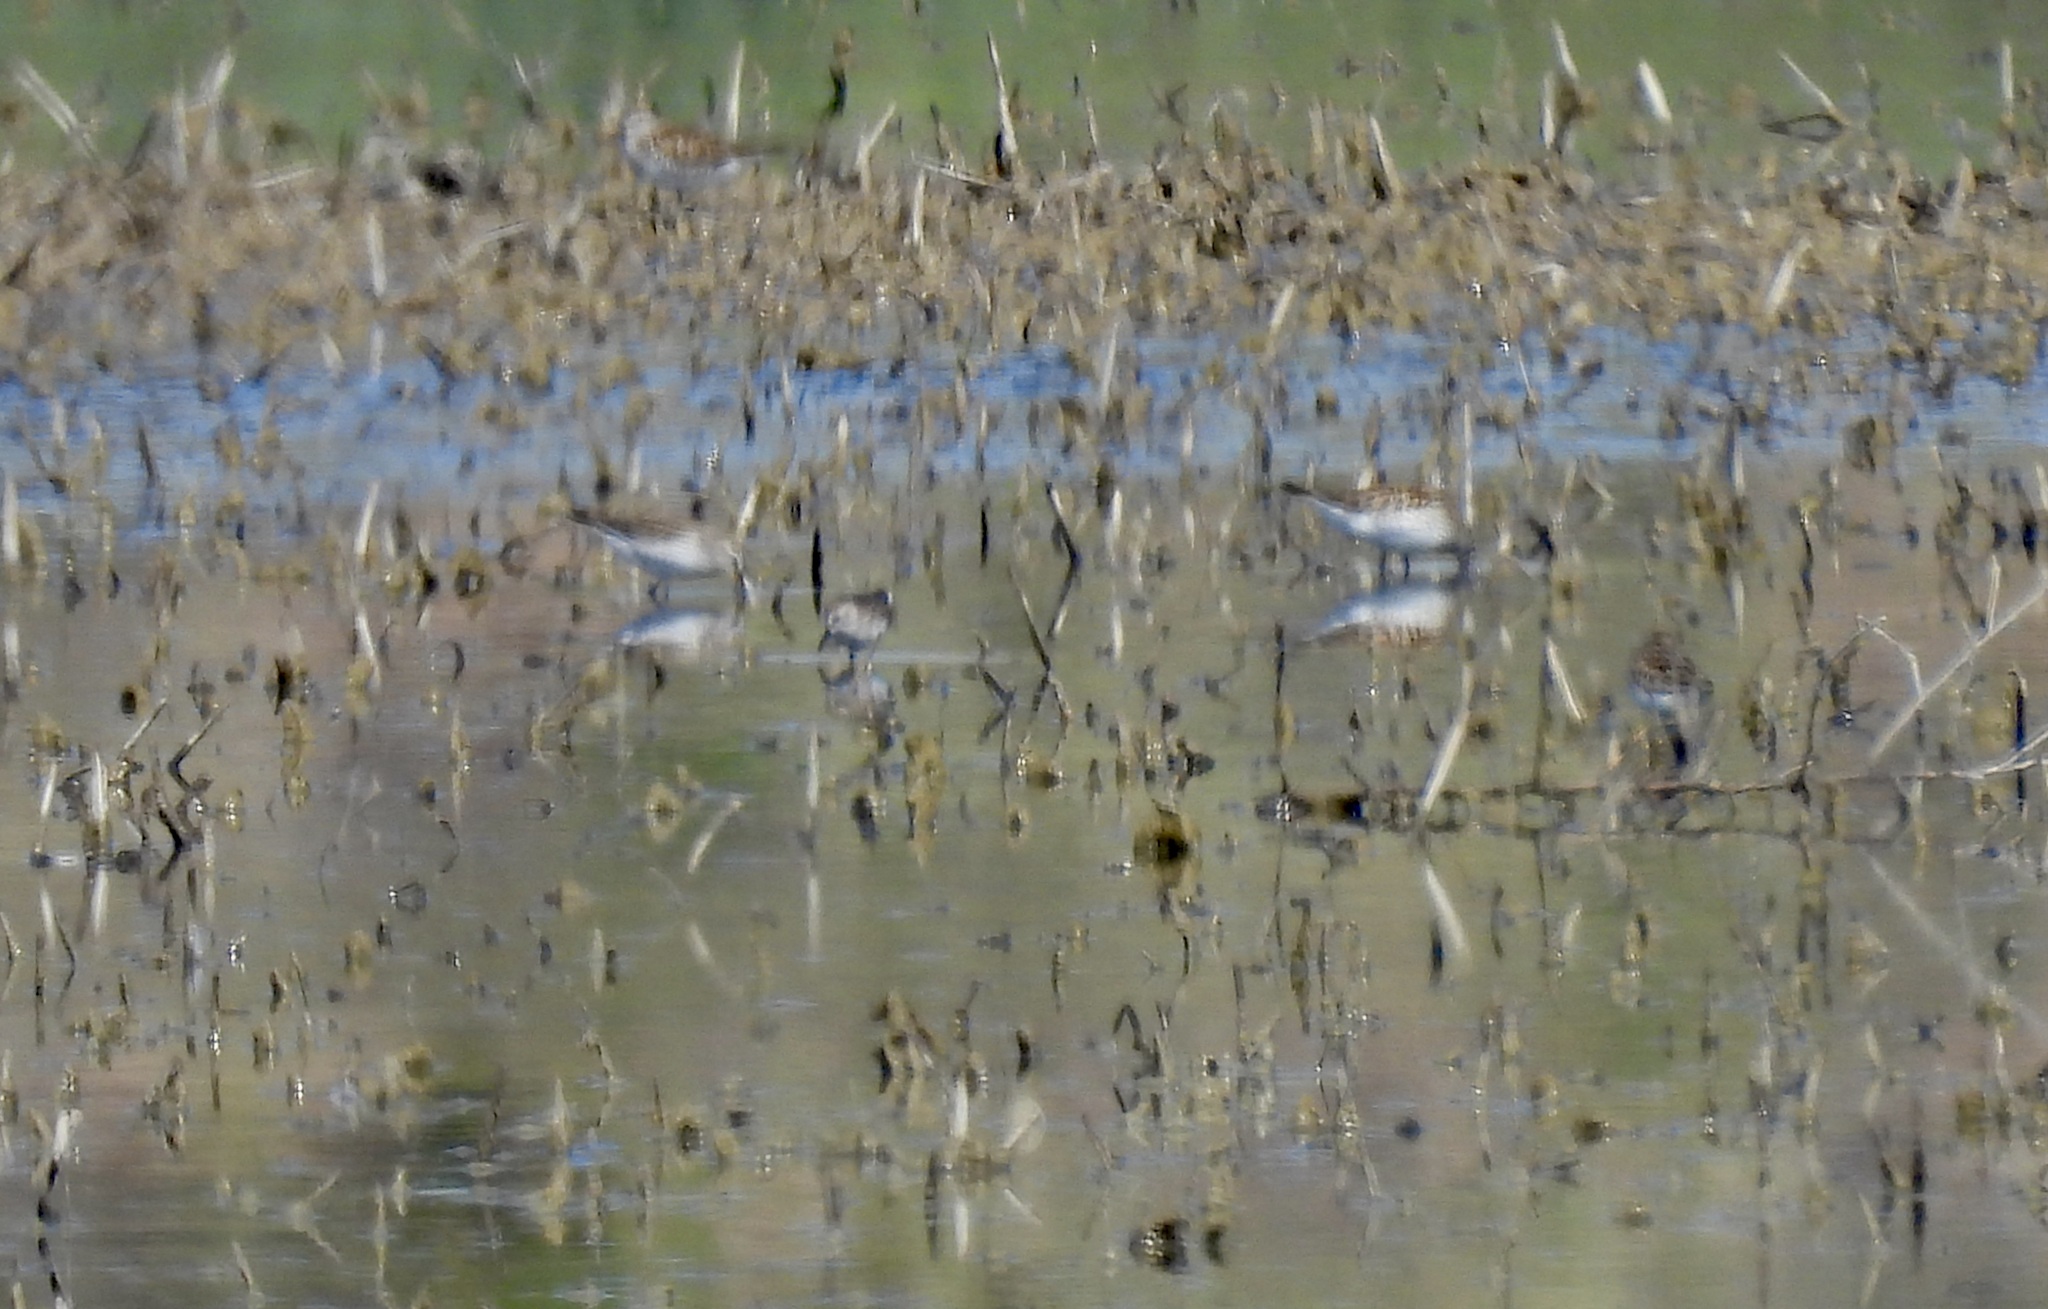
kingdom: Animalia
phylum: Chordata
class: Aves
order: Charadriiformes
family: Scolopacidae
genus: Calidris
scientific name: Calidris fuscicollis
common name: White-rumped sandpiper
